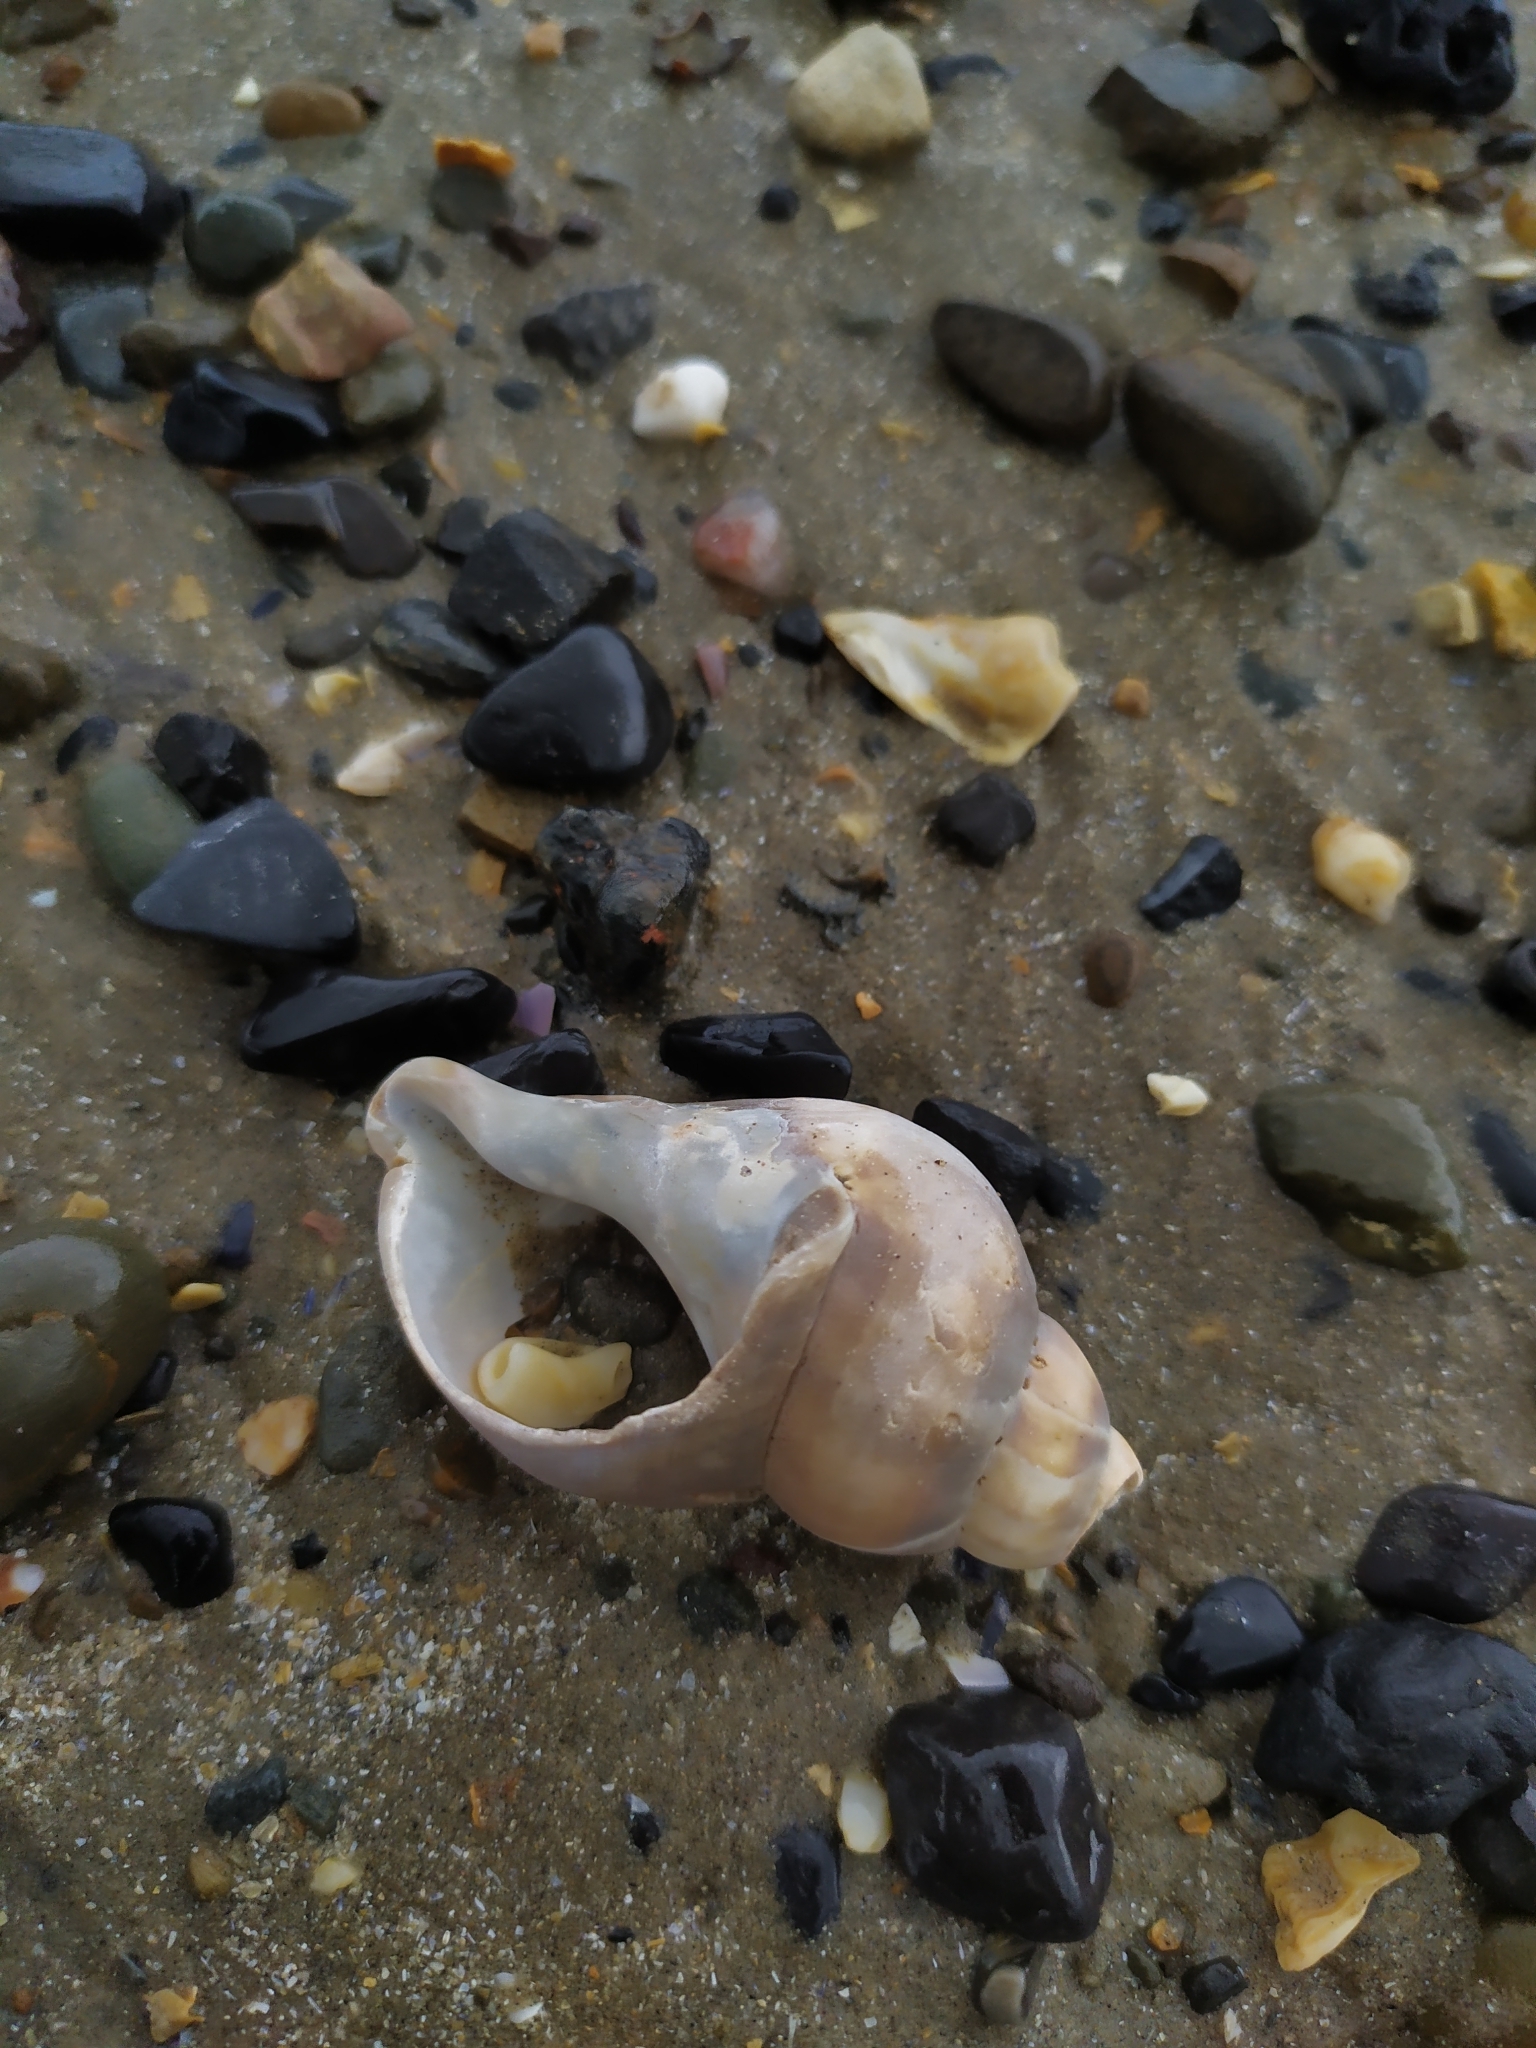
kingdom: Animalia
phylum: Mollusca
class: Gastropoda
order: Neogastropoda
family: Buccinidae
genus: Buccinum
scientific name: Buccinum undatum
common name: Common whelk
